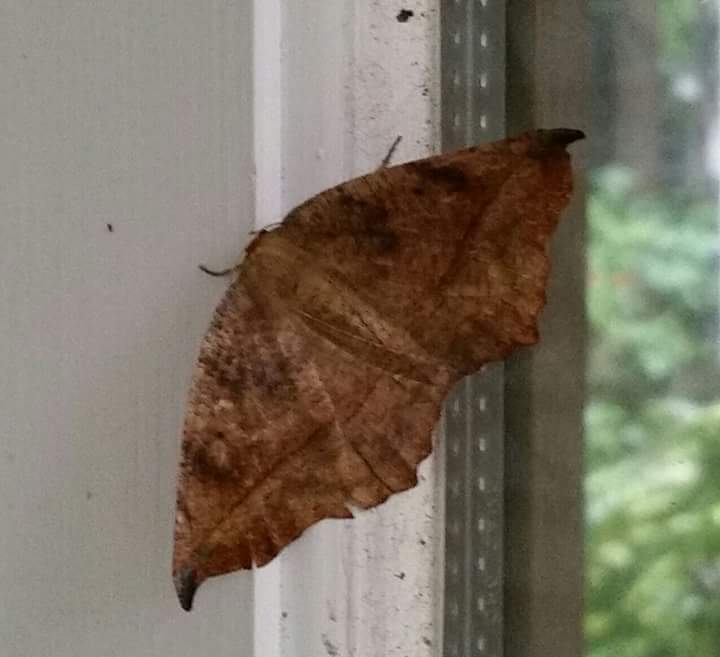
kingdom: Animalia
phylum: Arthropoda
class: Insecta
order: Lepidoptera
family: Geometridae
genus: Eutrapela
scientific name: Eutrapela clemataria
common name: Curved-toothed geometer
